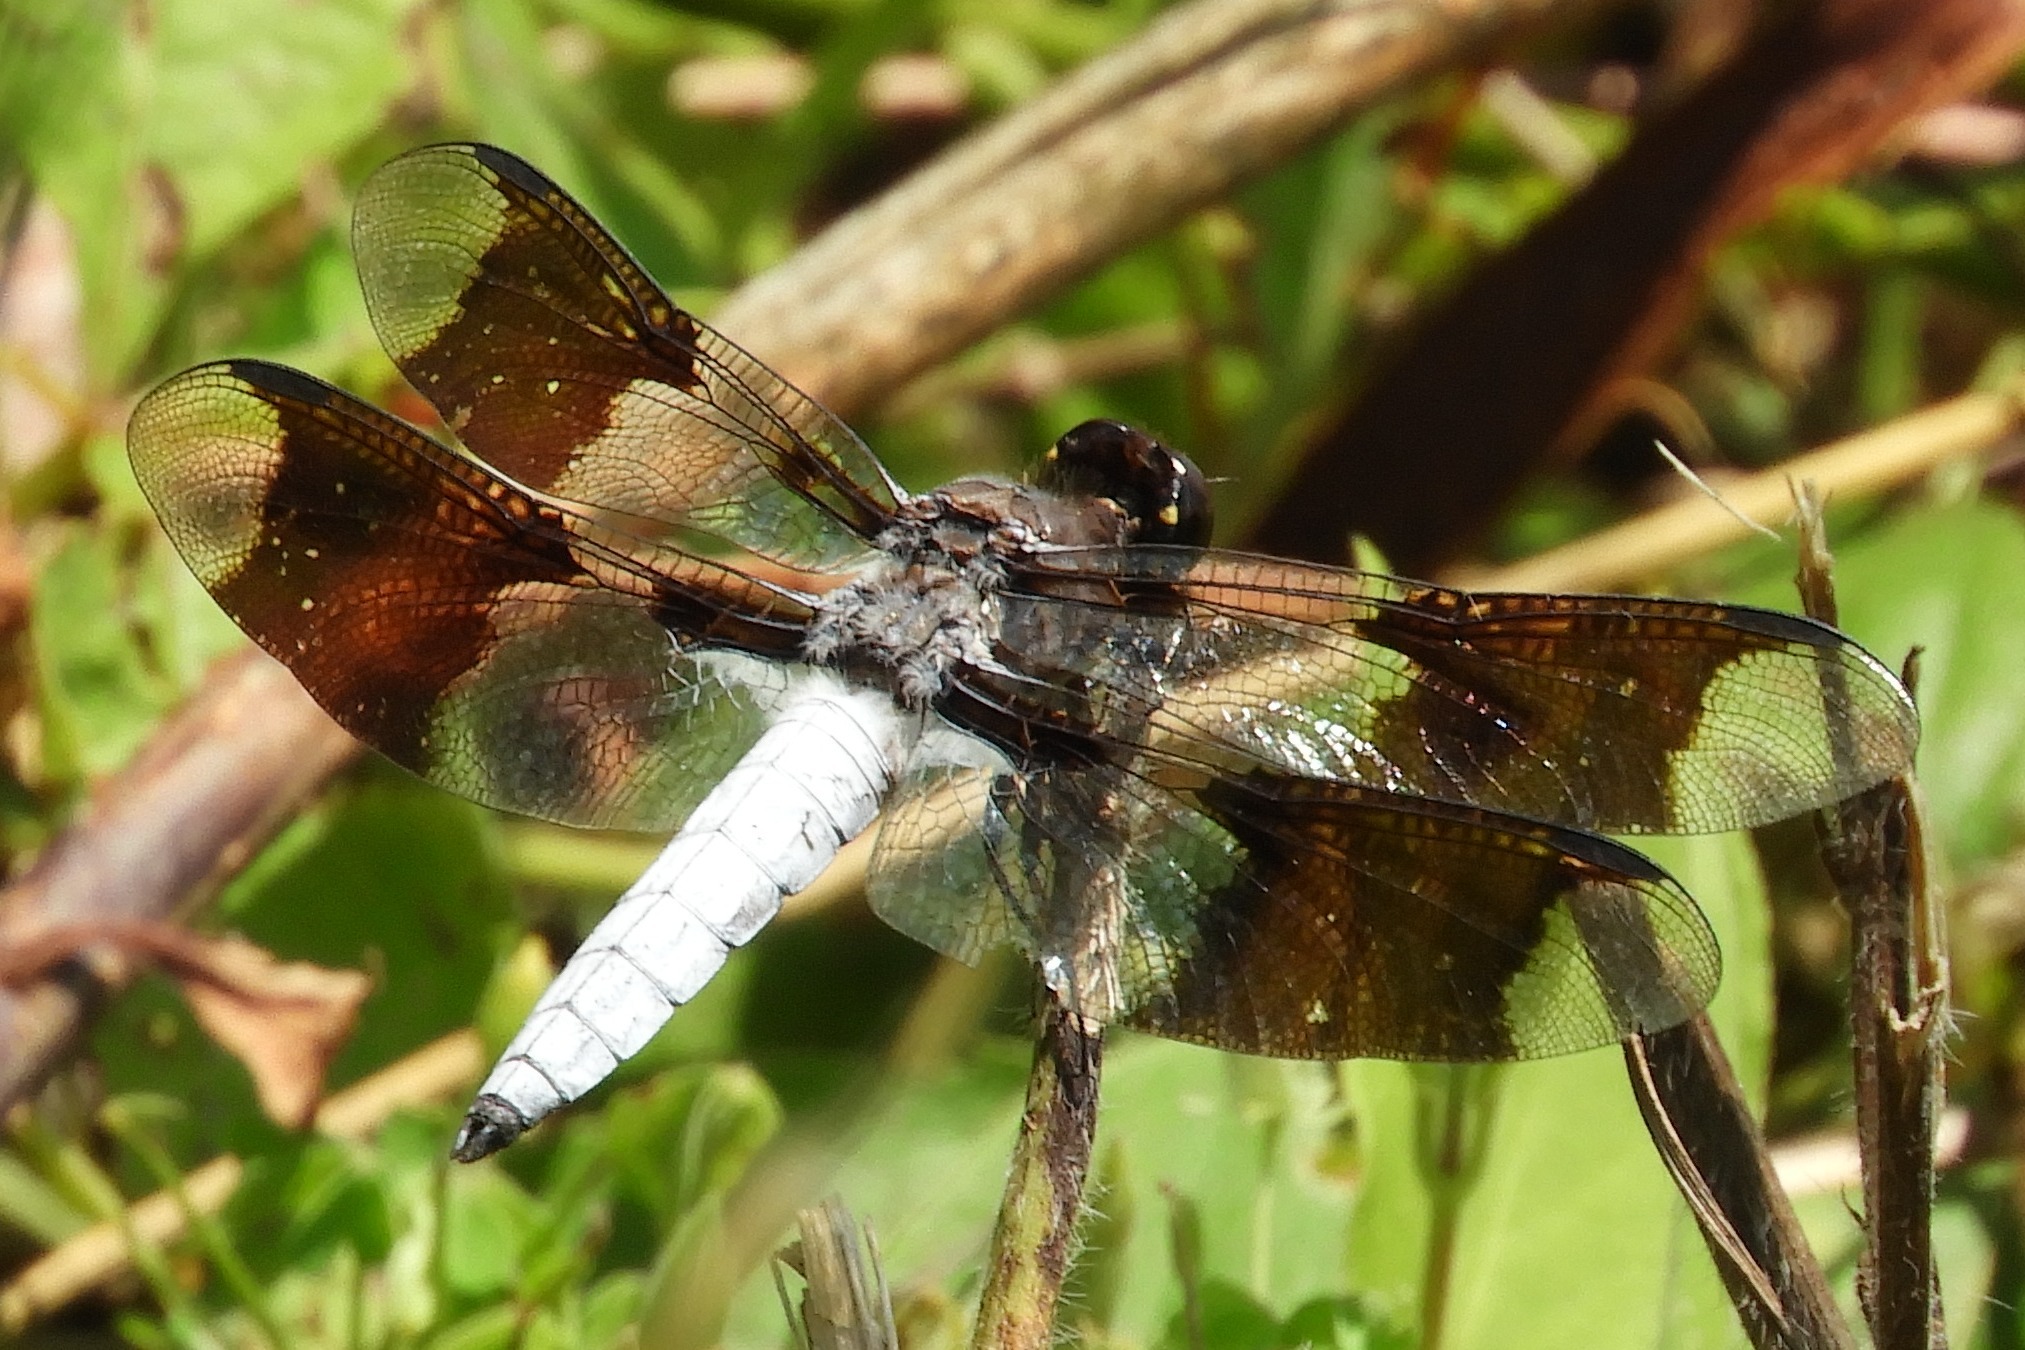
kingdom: Animalia
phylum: Arthropoda
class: Insecta
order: Odonata
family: Libellulidae
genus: Plathemis
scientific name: Plathemis lydia
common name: Common whitetail
